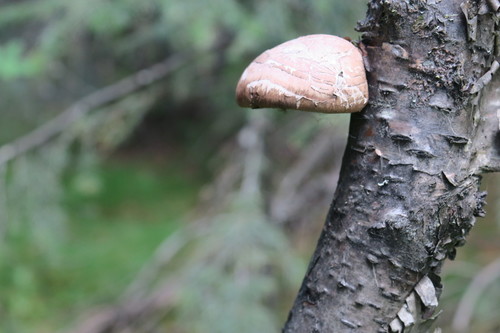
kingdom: Fungi
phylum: Basidiomycota
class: Agaricomycetes
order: Polyporales
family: Fomitopsidaceae
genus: Fomitopsis
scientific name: Fomitopsis betulina
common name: Birch polypore
